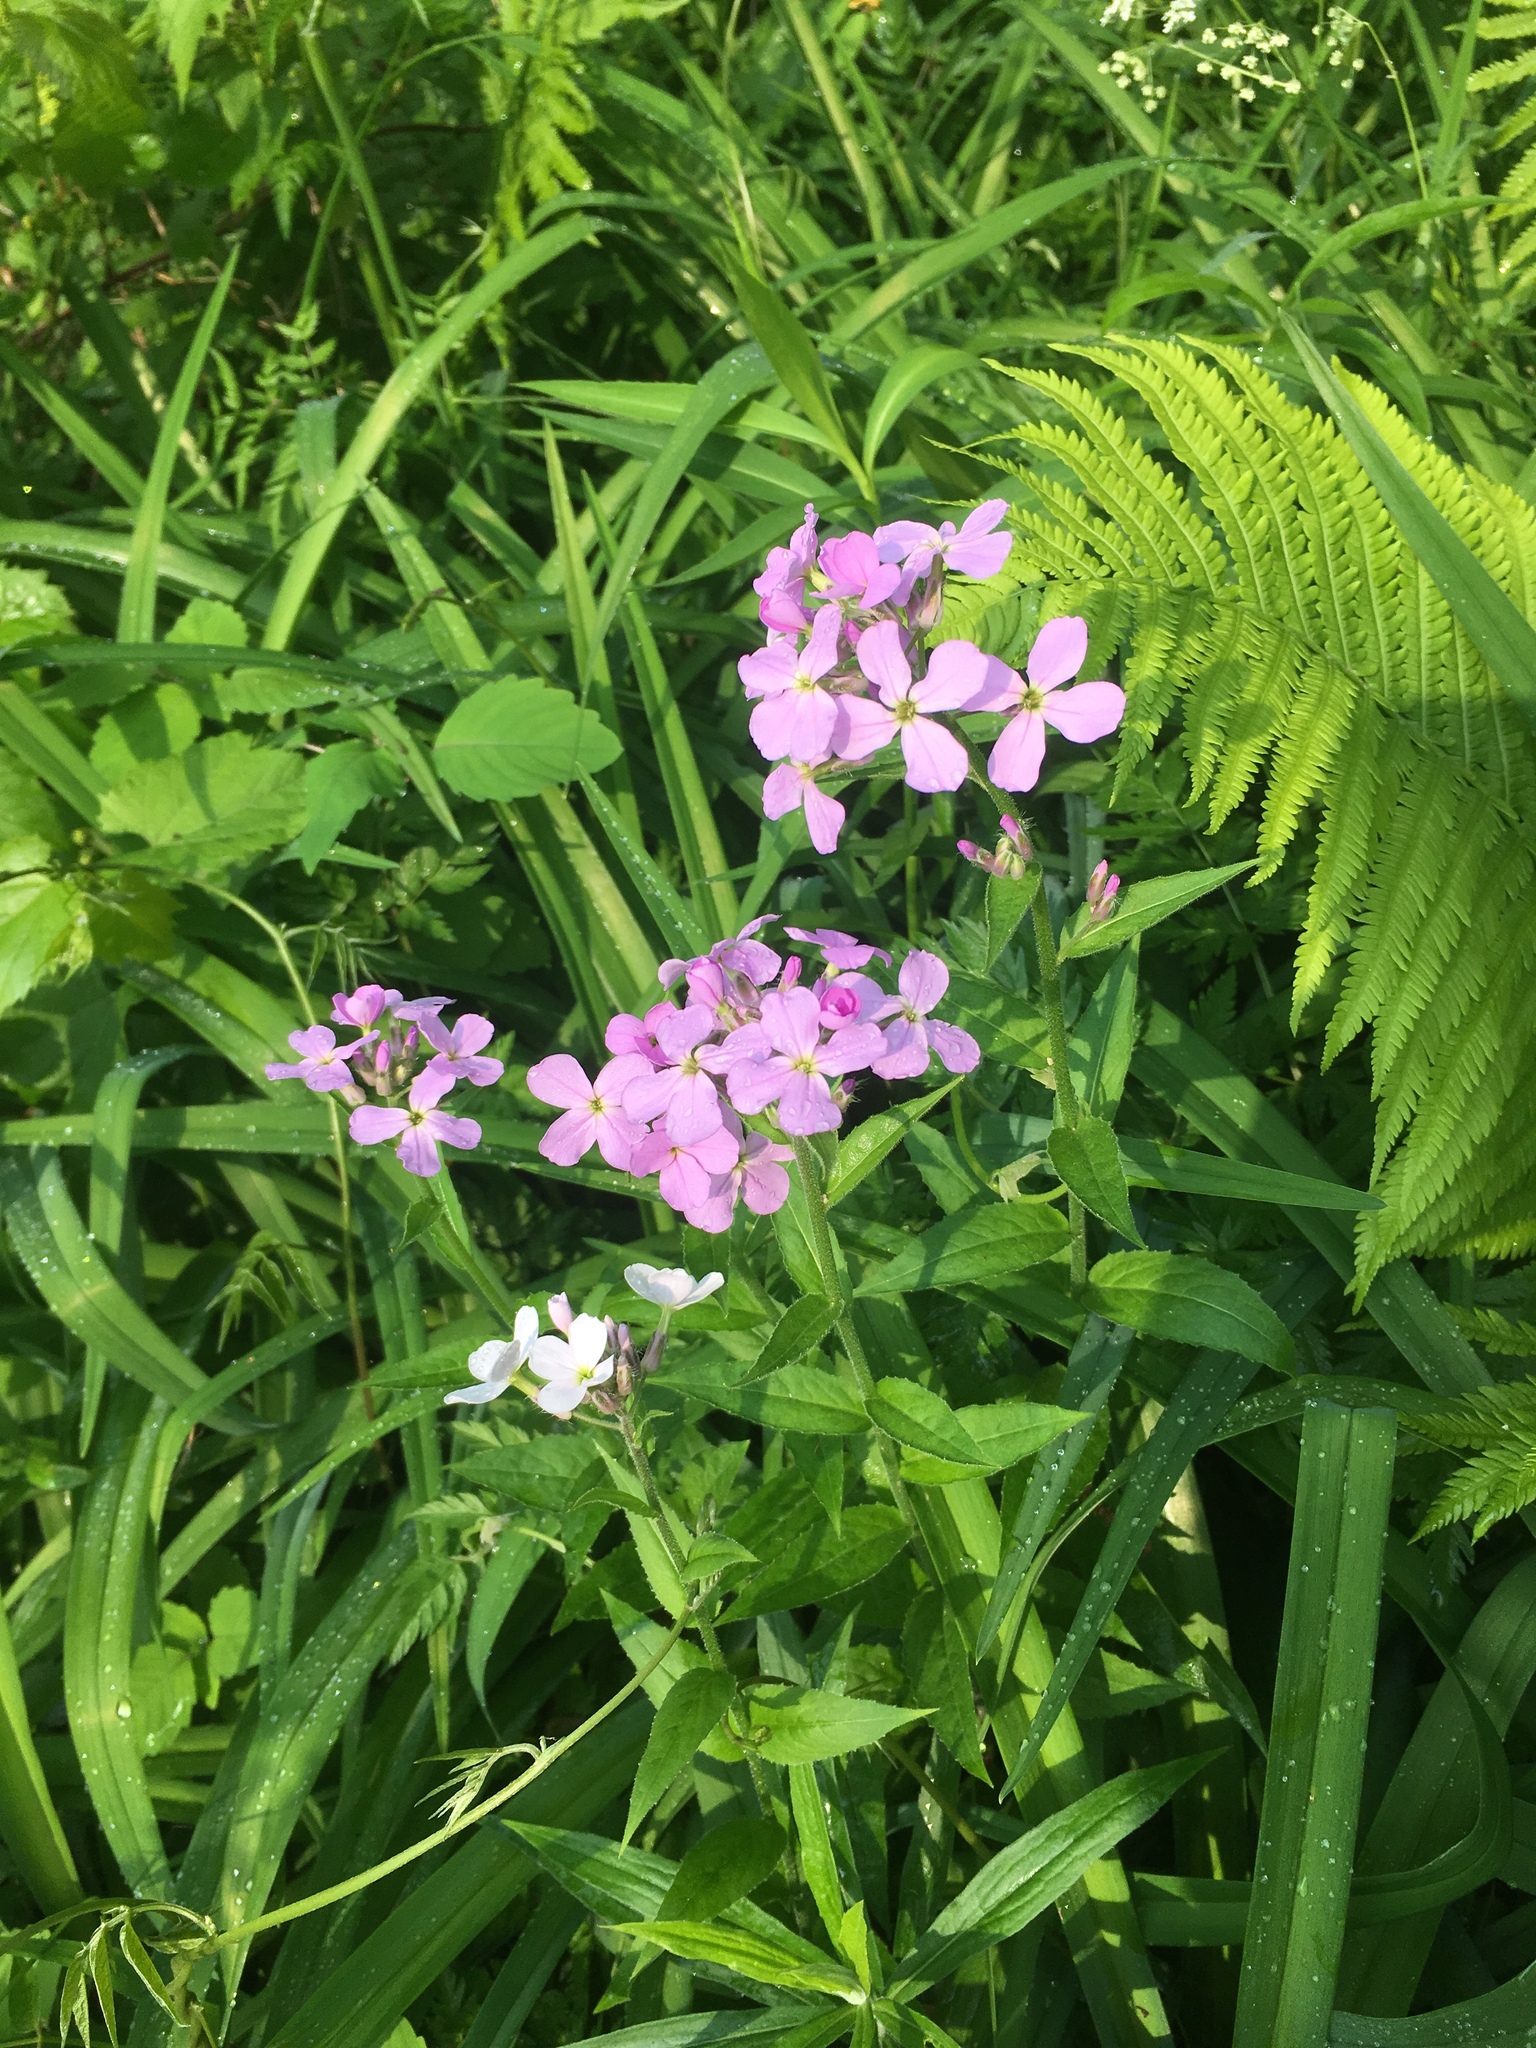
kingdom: Plantae
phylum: Tracheophyta
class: Magnoliopsida
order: Brassicales
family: Brassicaceae
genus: Hesperis
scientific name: Hesperis matronalis
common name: Dame's-violet
